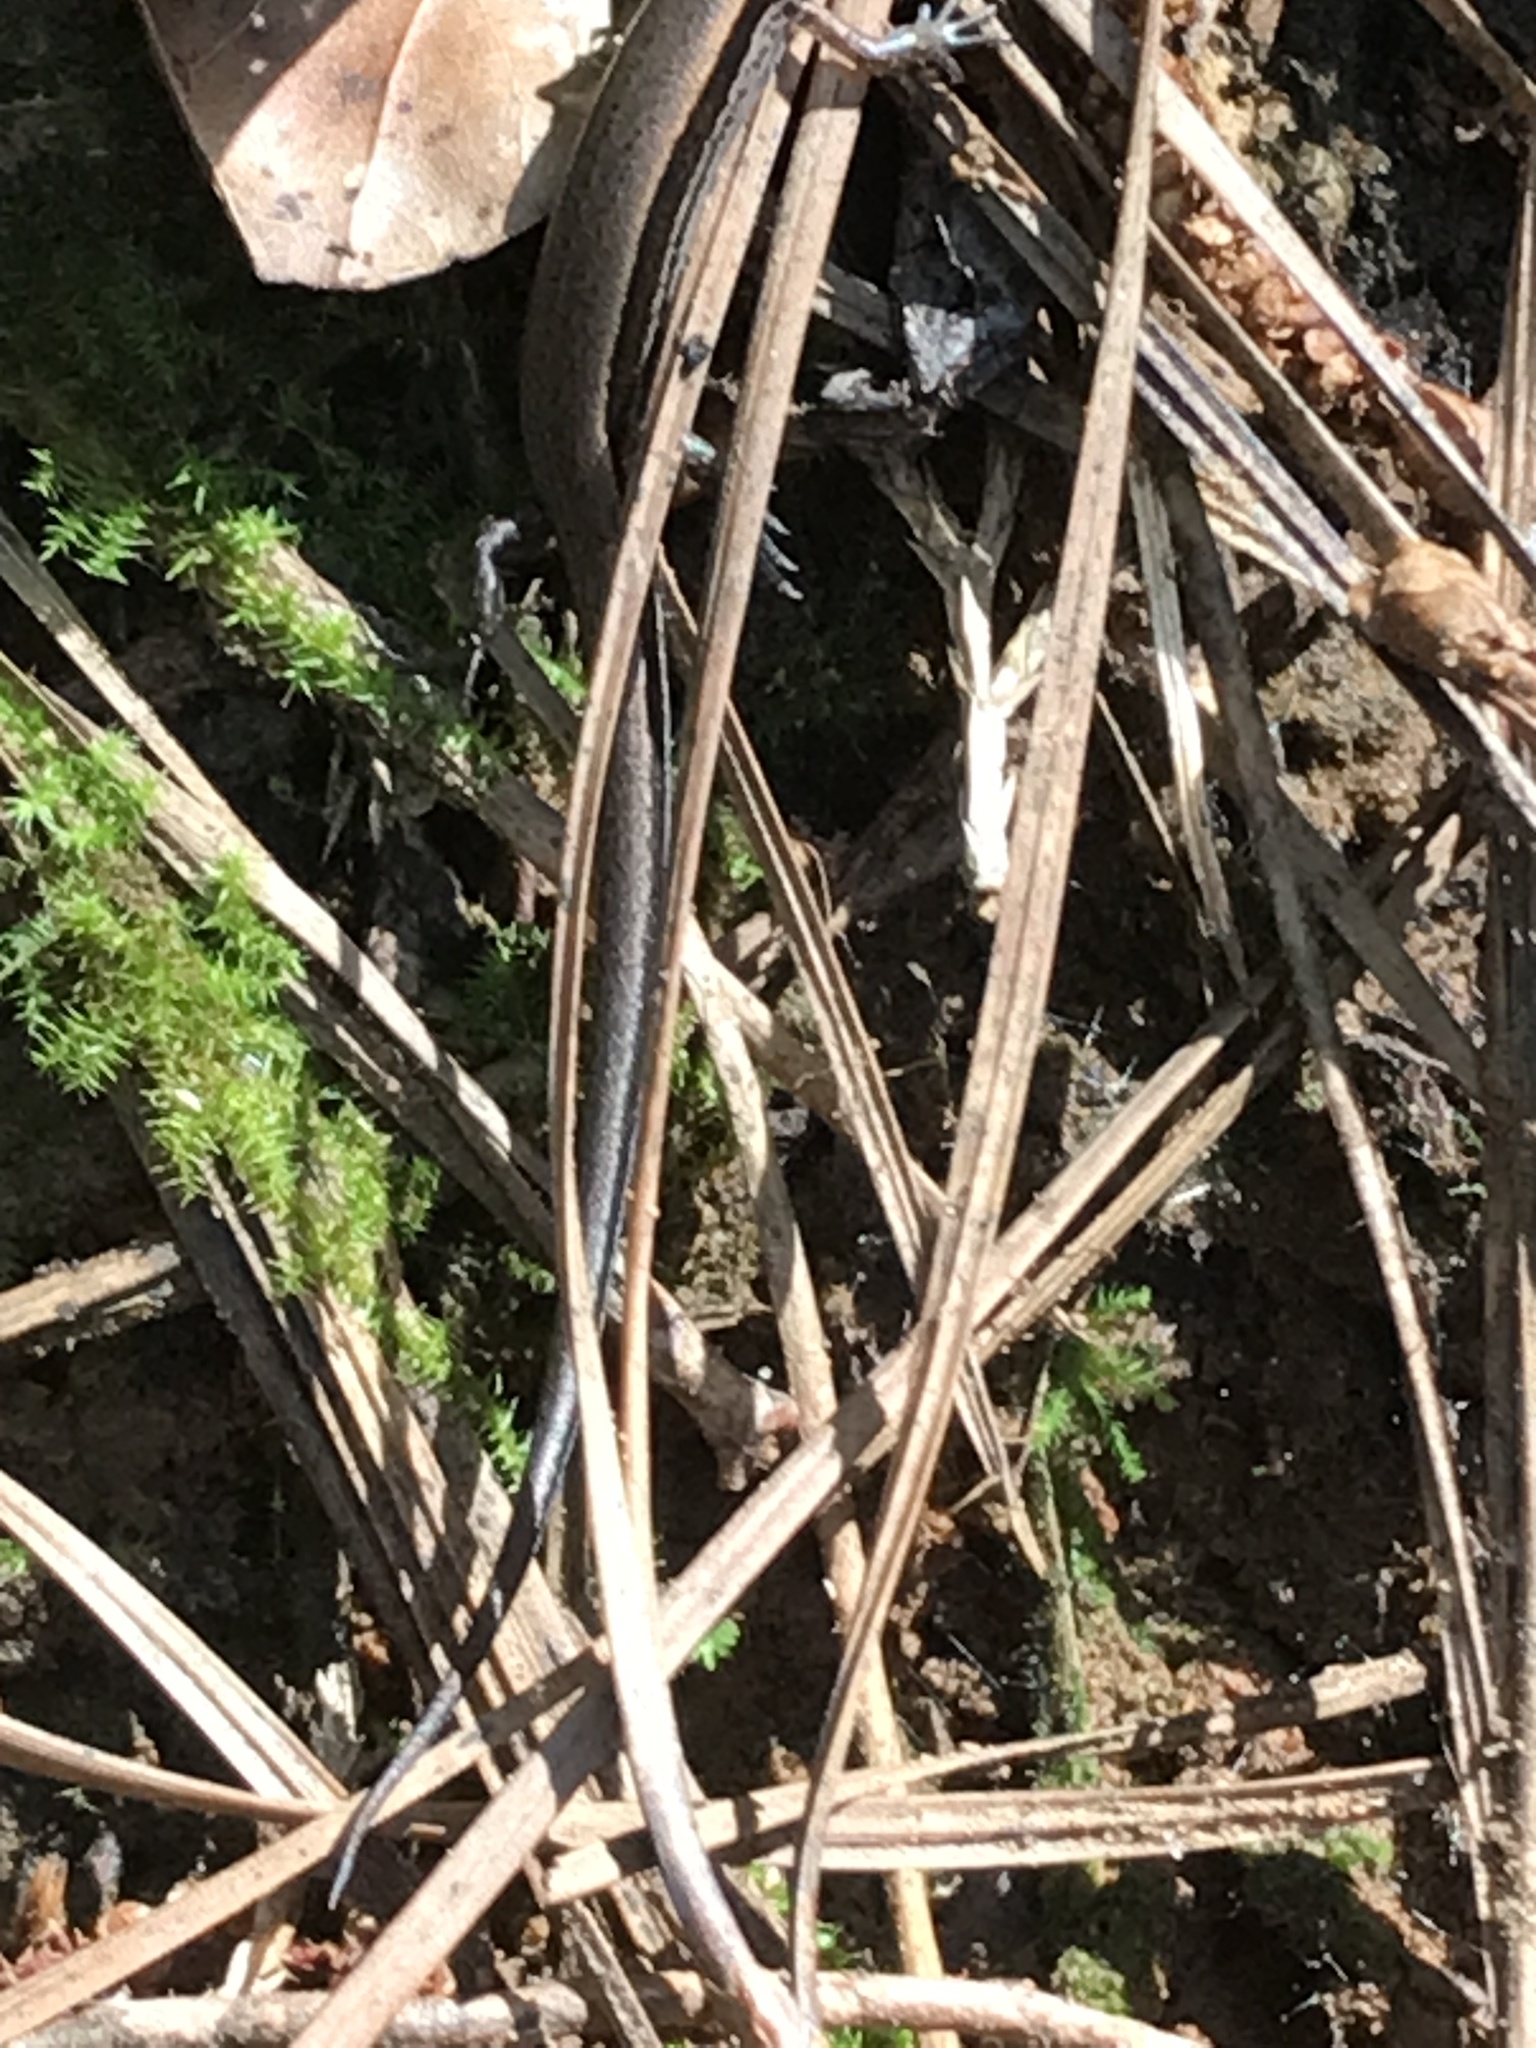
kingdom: Animalia
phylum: Chordata
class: Squamata
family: Scincidae
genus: Scincella
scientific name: Scincella lateralis
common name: Ground skink
